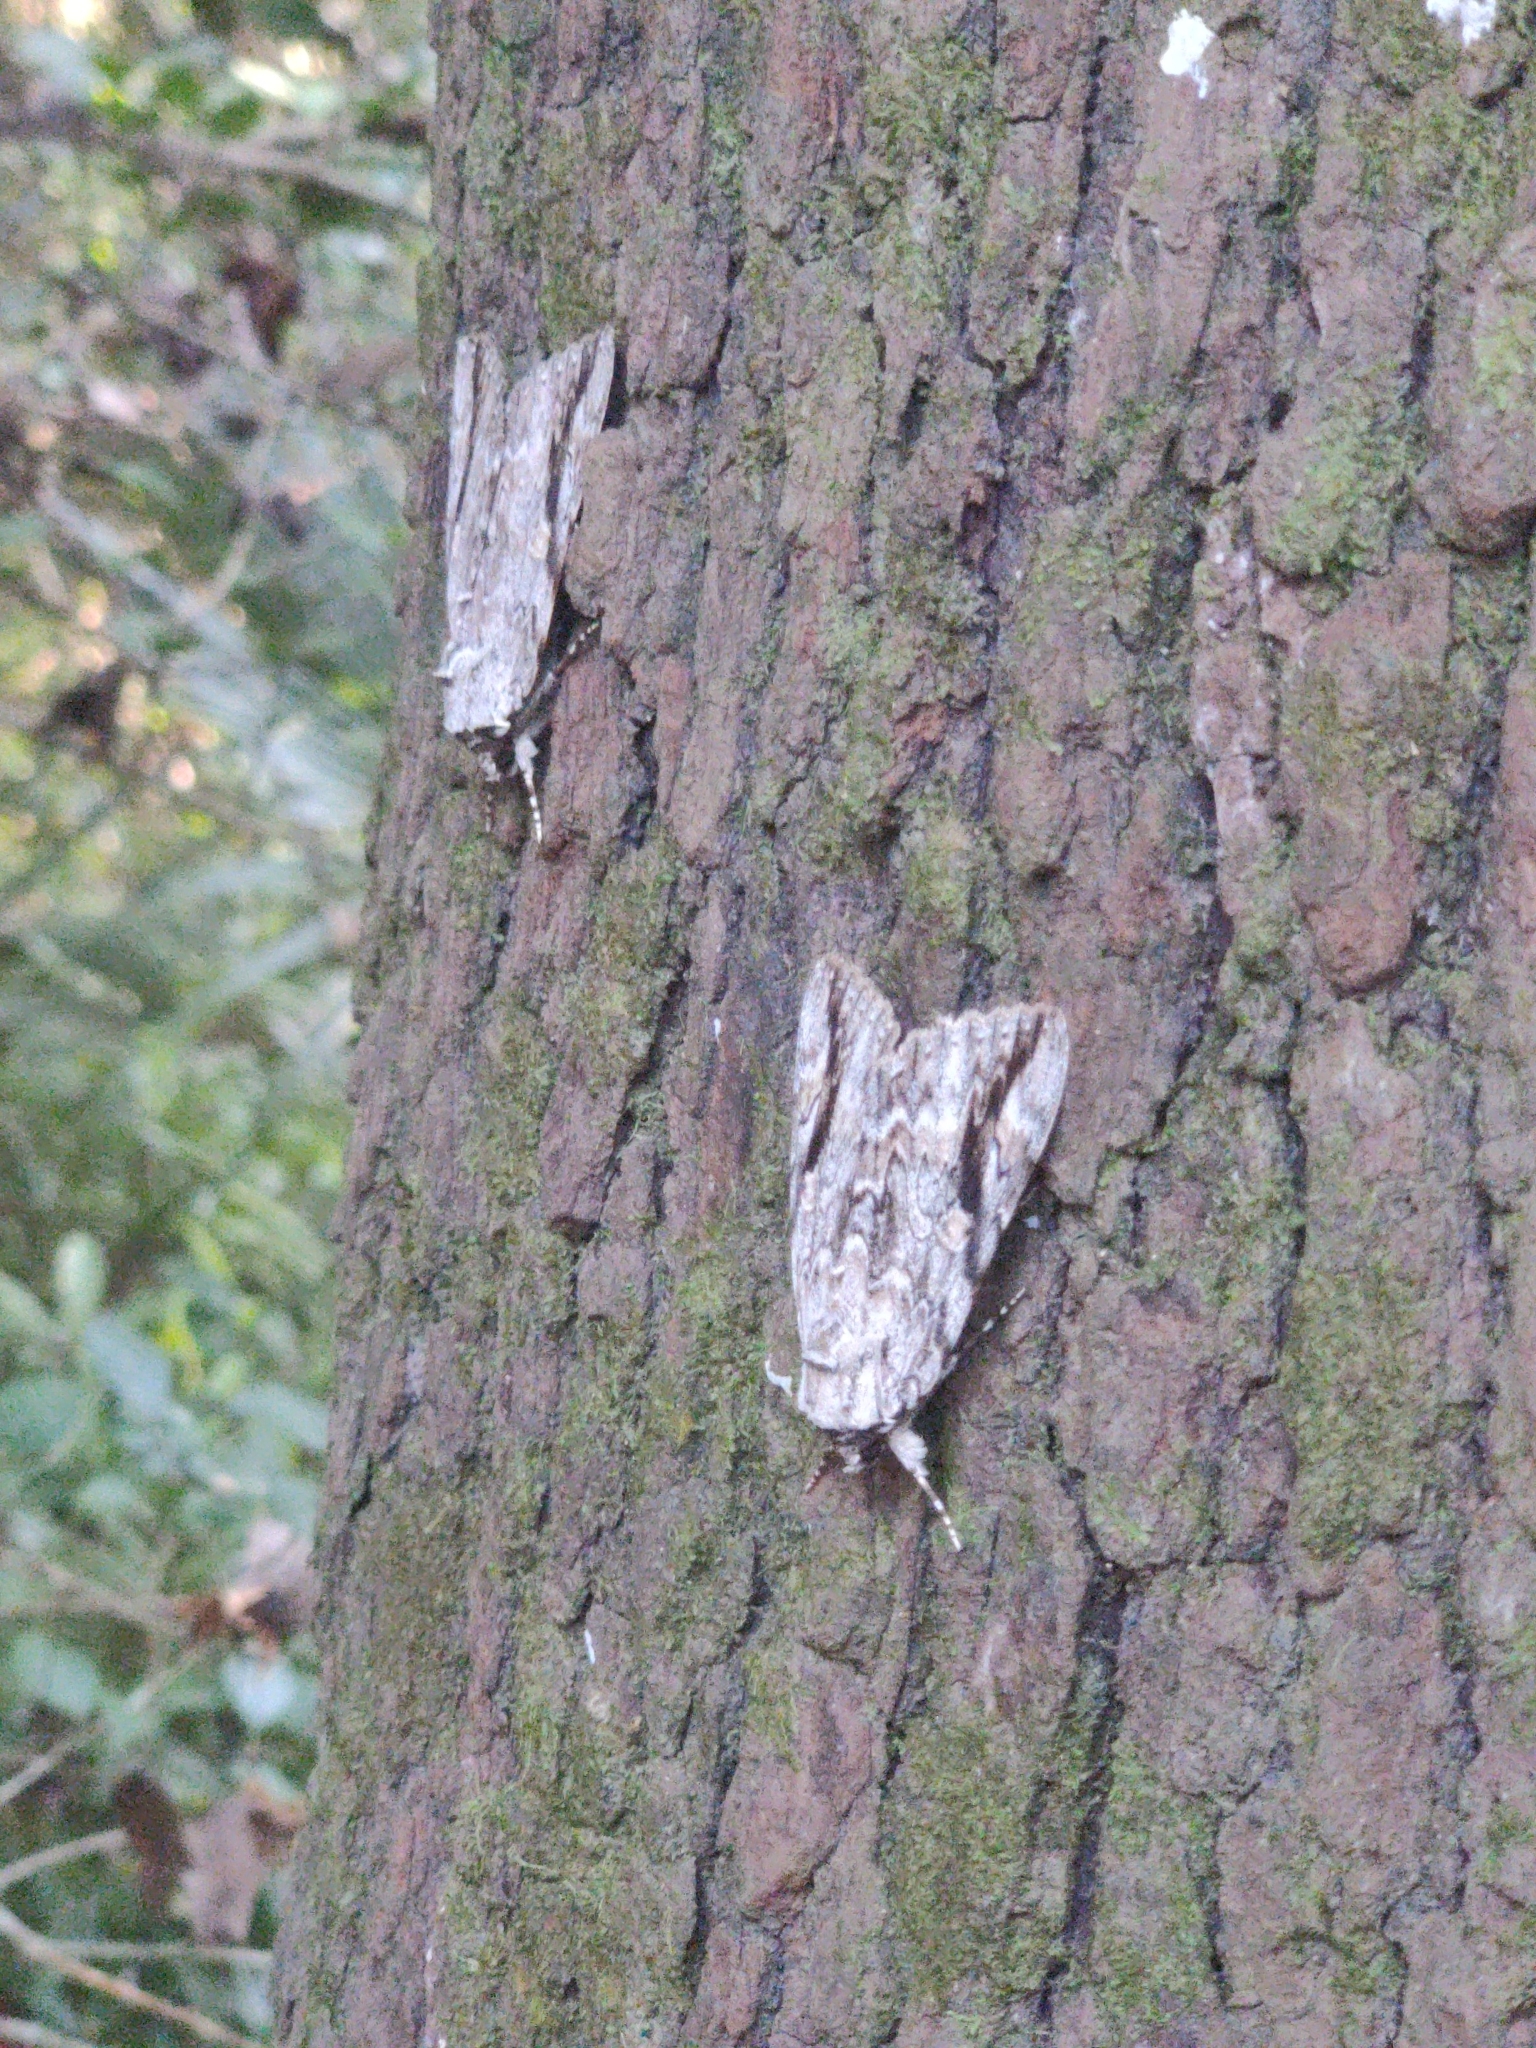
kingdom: Animalia
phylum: Arthropoda
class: Insecta
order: Lepidoptera
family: Erebidae
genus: Catocala
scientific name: Catocala maestosa
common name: Sad underwing
